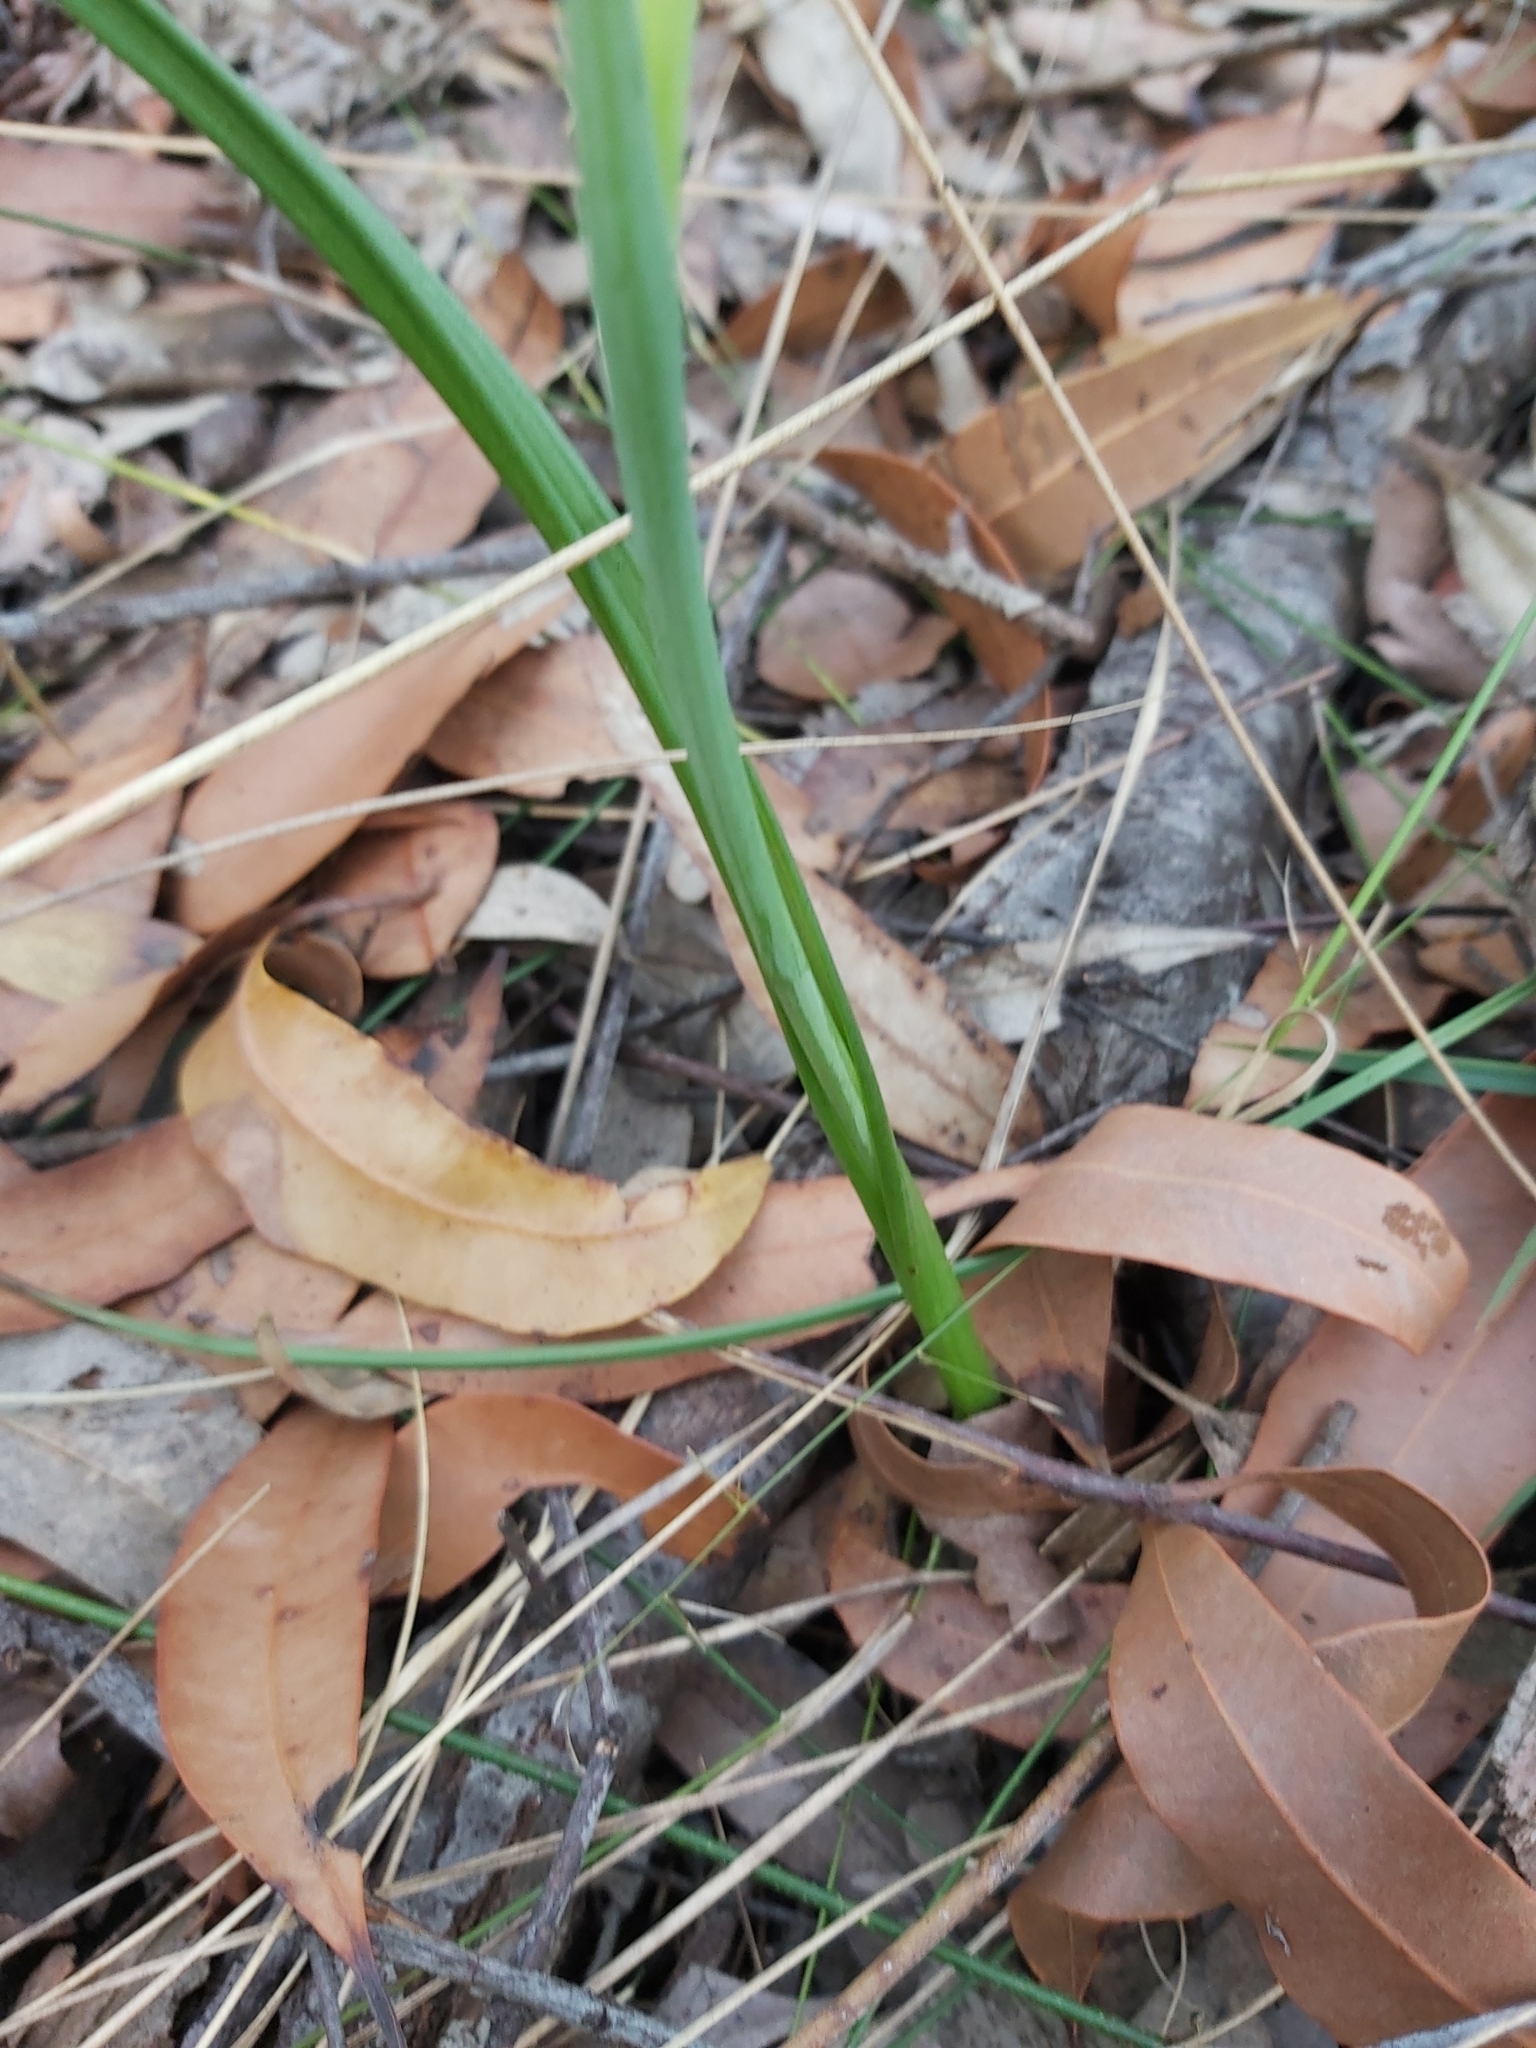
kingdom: Plantae
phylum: Tracheophyta
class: Liliopsida
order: Asparagales
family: Orchidaceae
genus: Thelymitra
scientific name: Thelymitra
